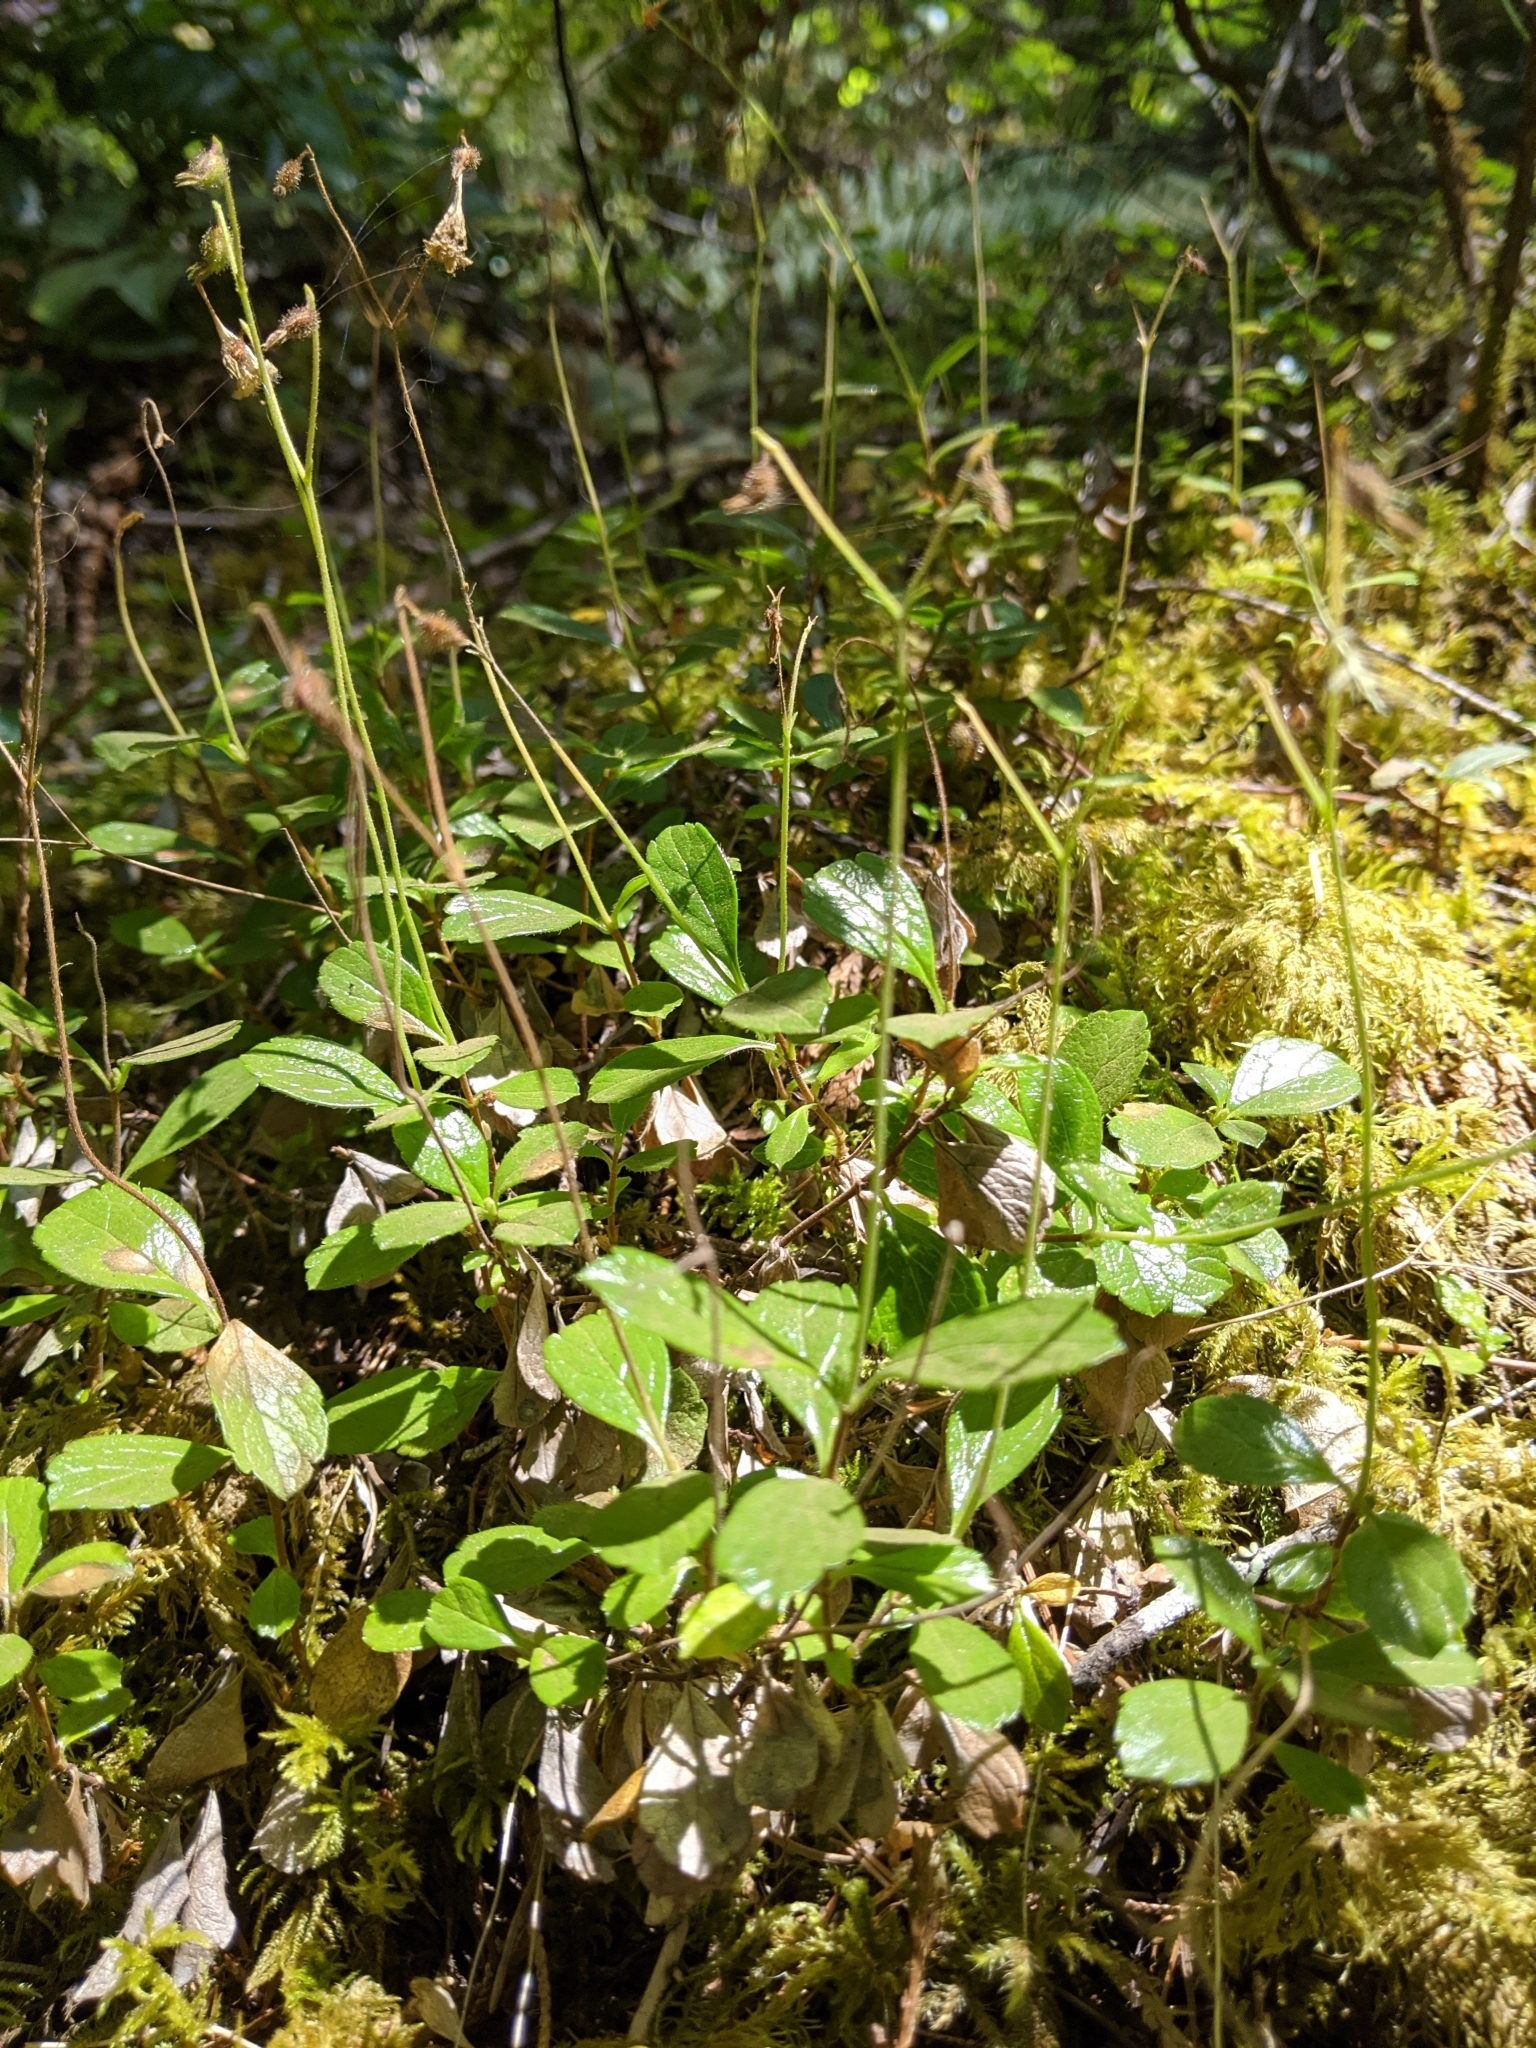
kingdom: Plantae
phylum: Tracheophyta
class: Magnoliopsida
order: Dipsacales
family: Caprifoliaceae
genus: Linnaea
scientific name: Linnaea borealis
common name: Twinflower
